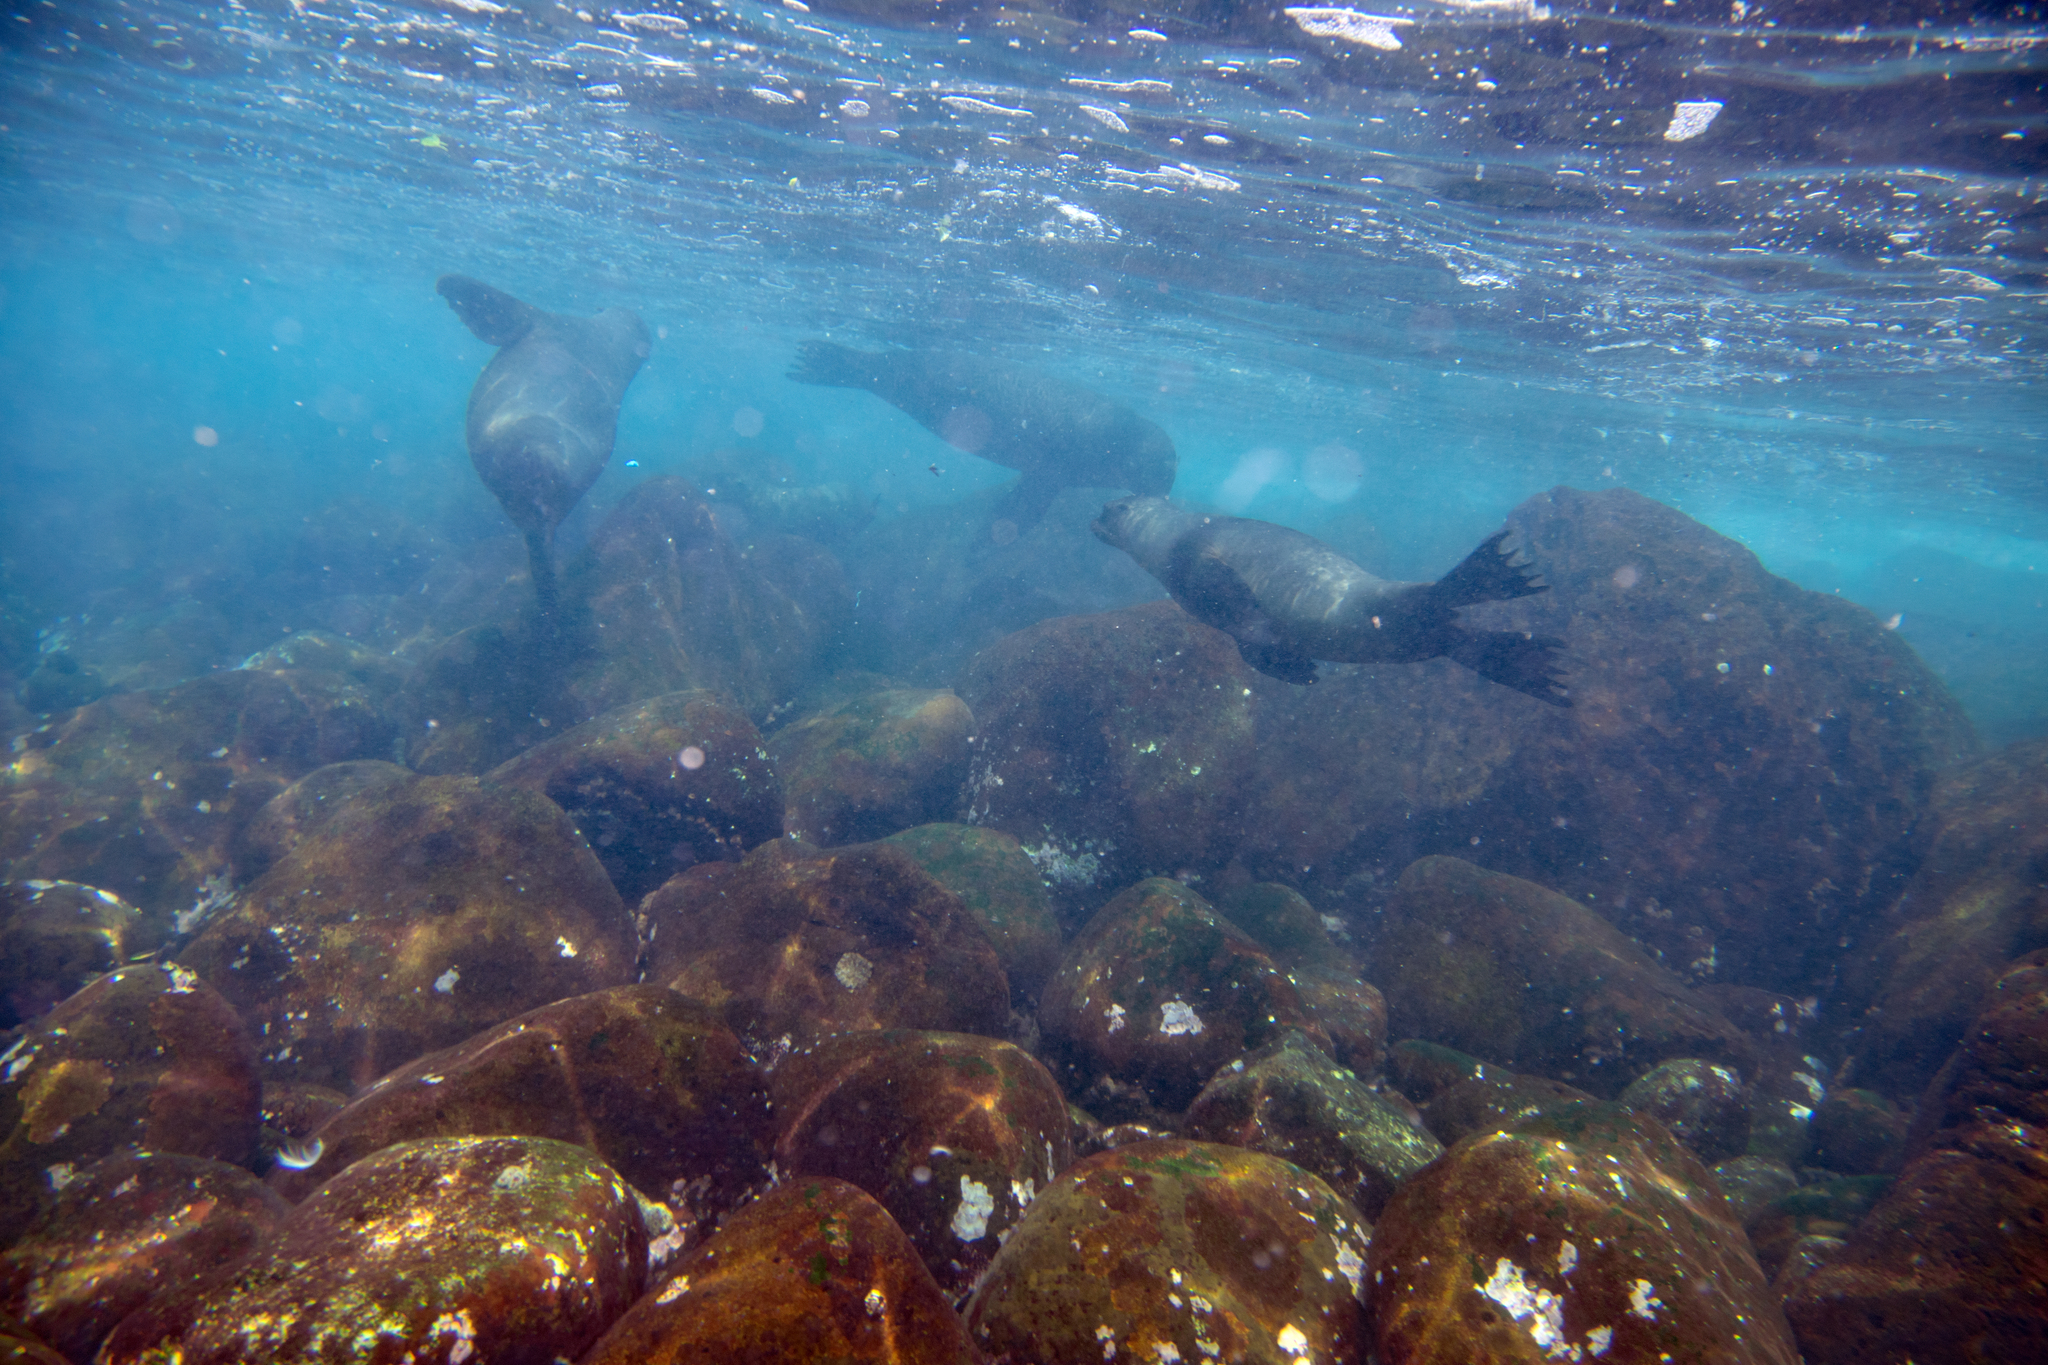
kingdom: Animalia
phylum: Chordata
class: Mammalia
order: Carnivora
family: Otariidae
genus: Zalophus
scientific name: Zalophus wollebaeki
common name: Galapagos sea lion
